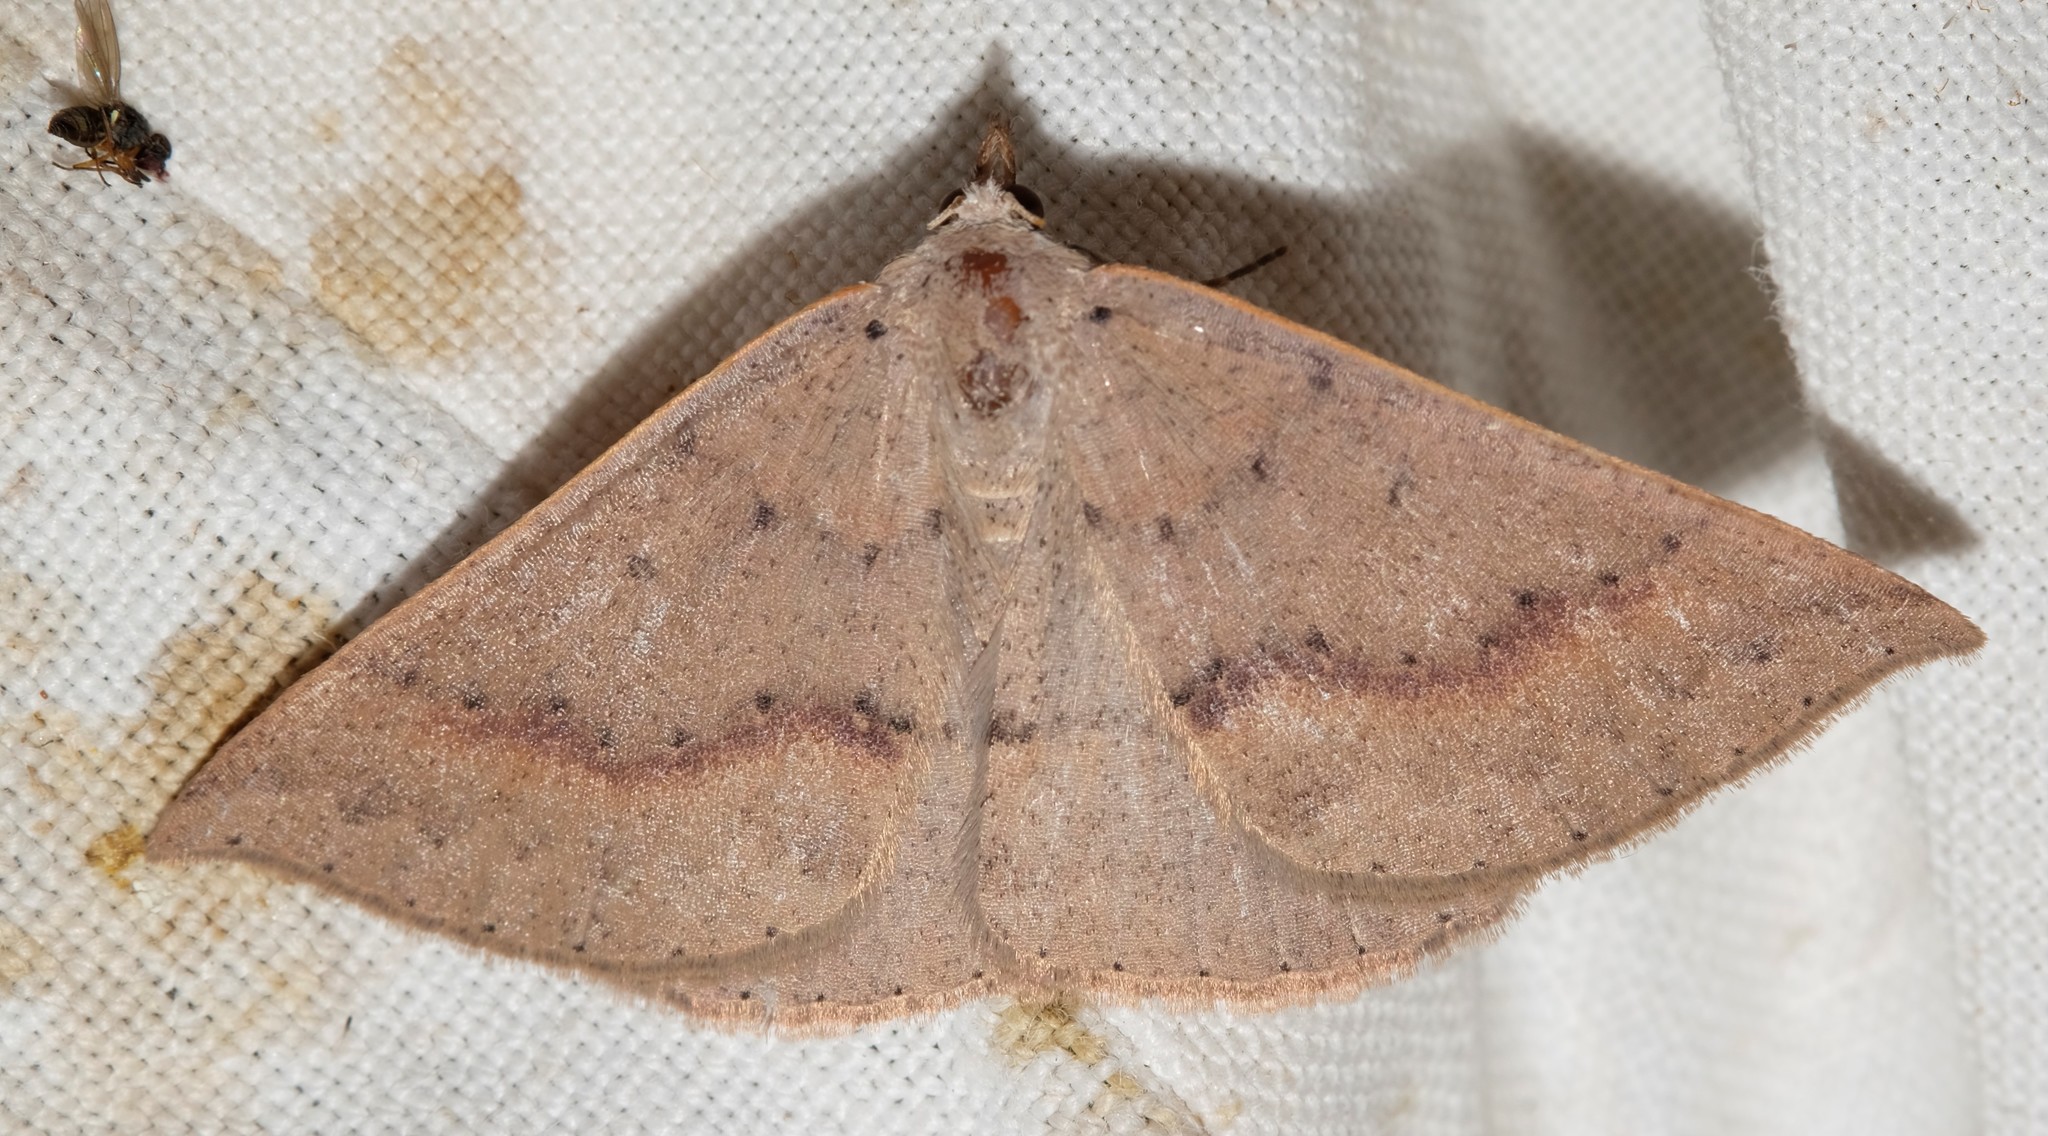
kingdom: Animalia
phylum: Arthropoda
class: Insecta
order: Lepidoptera
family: Geometridae
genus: Nearcha
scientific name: Nearcha ursaria
